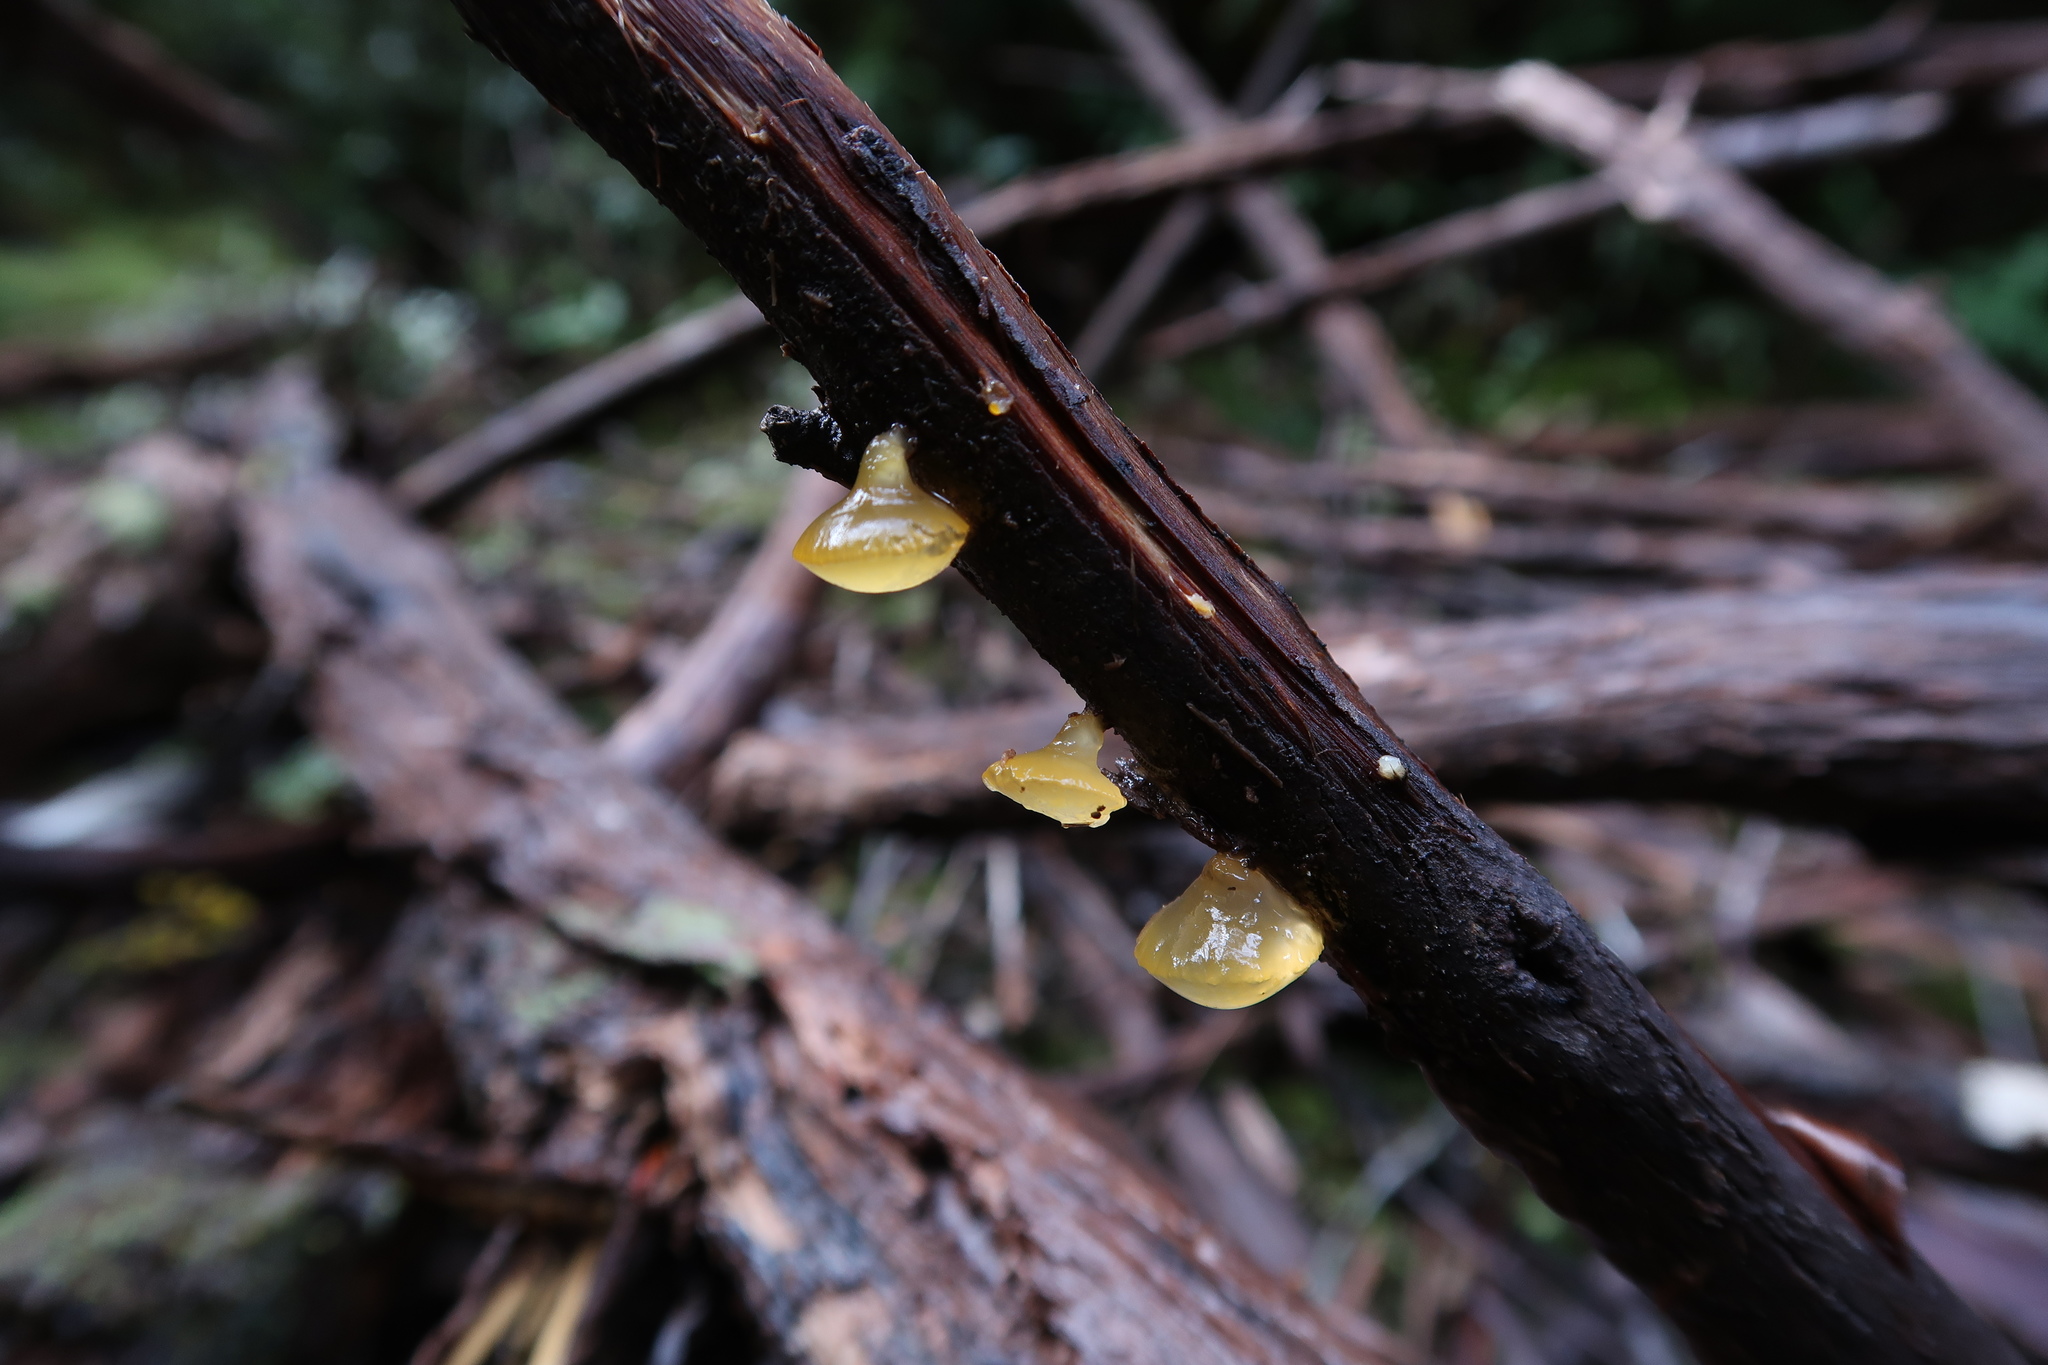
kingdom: Fungi
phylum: Basidiomycota
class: Dacrymycetes
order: Dacrymycetales
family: Dacrymycetaceae
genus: Heterotextus
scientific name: Heterotextus peziziformis
